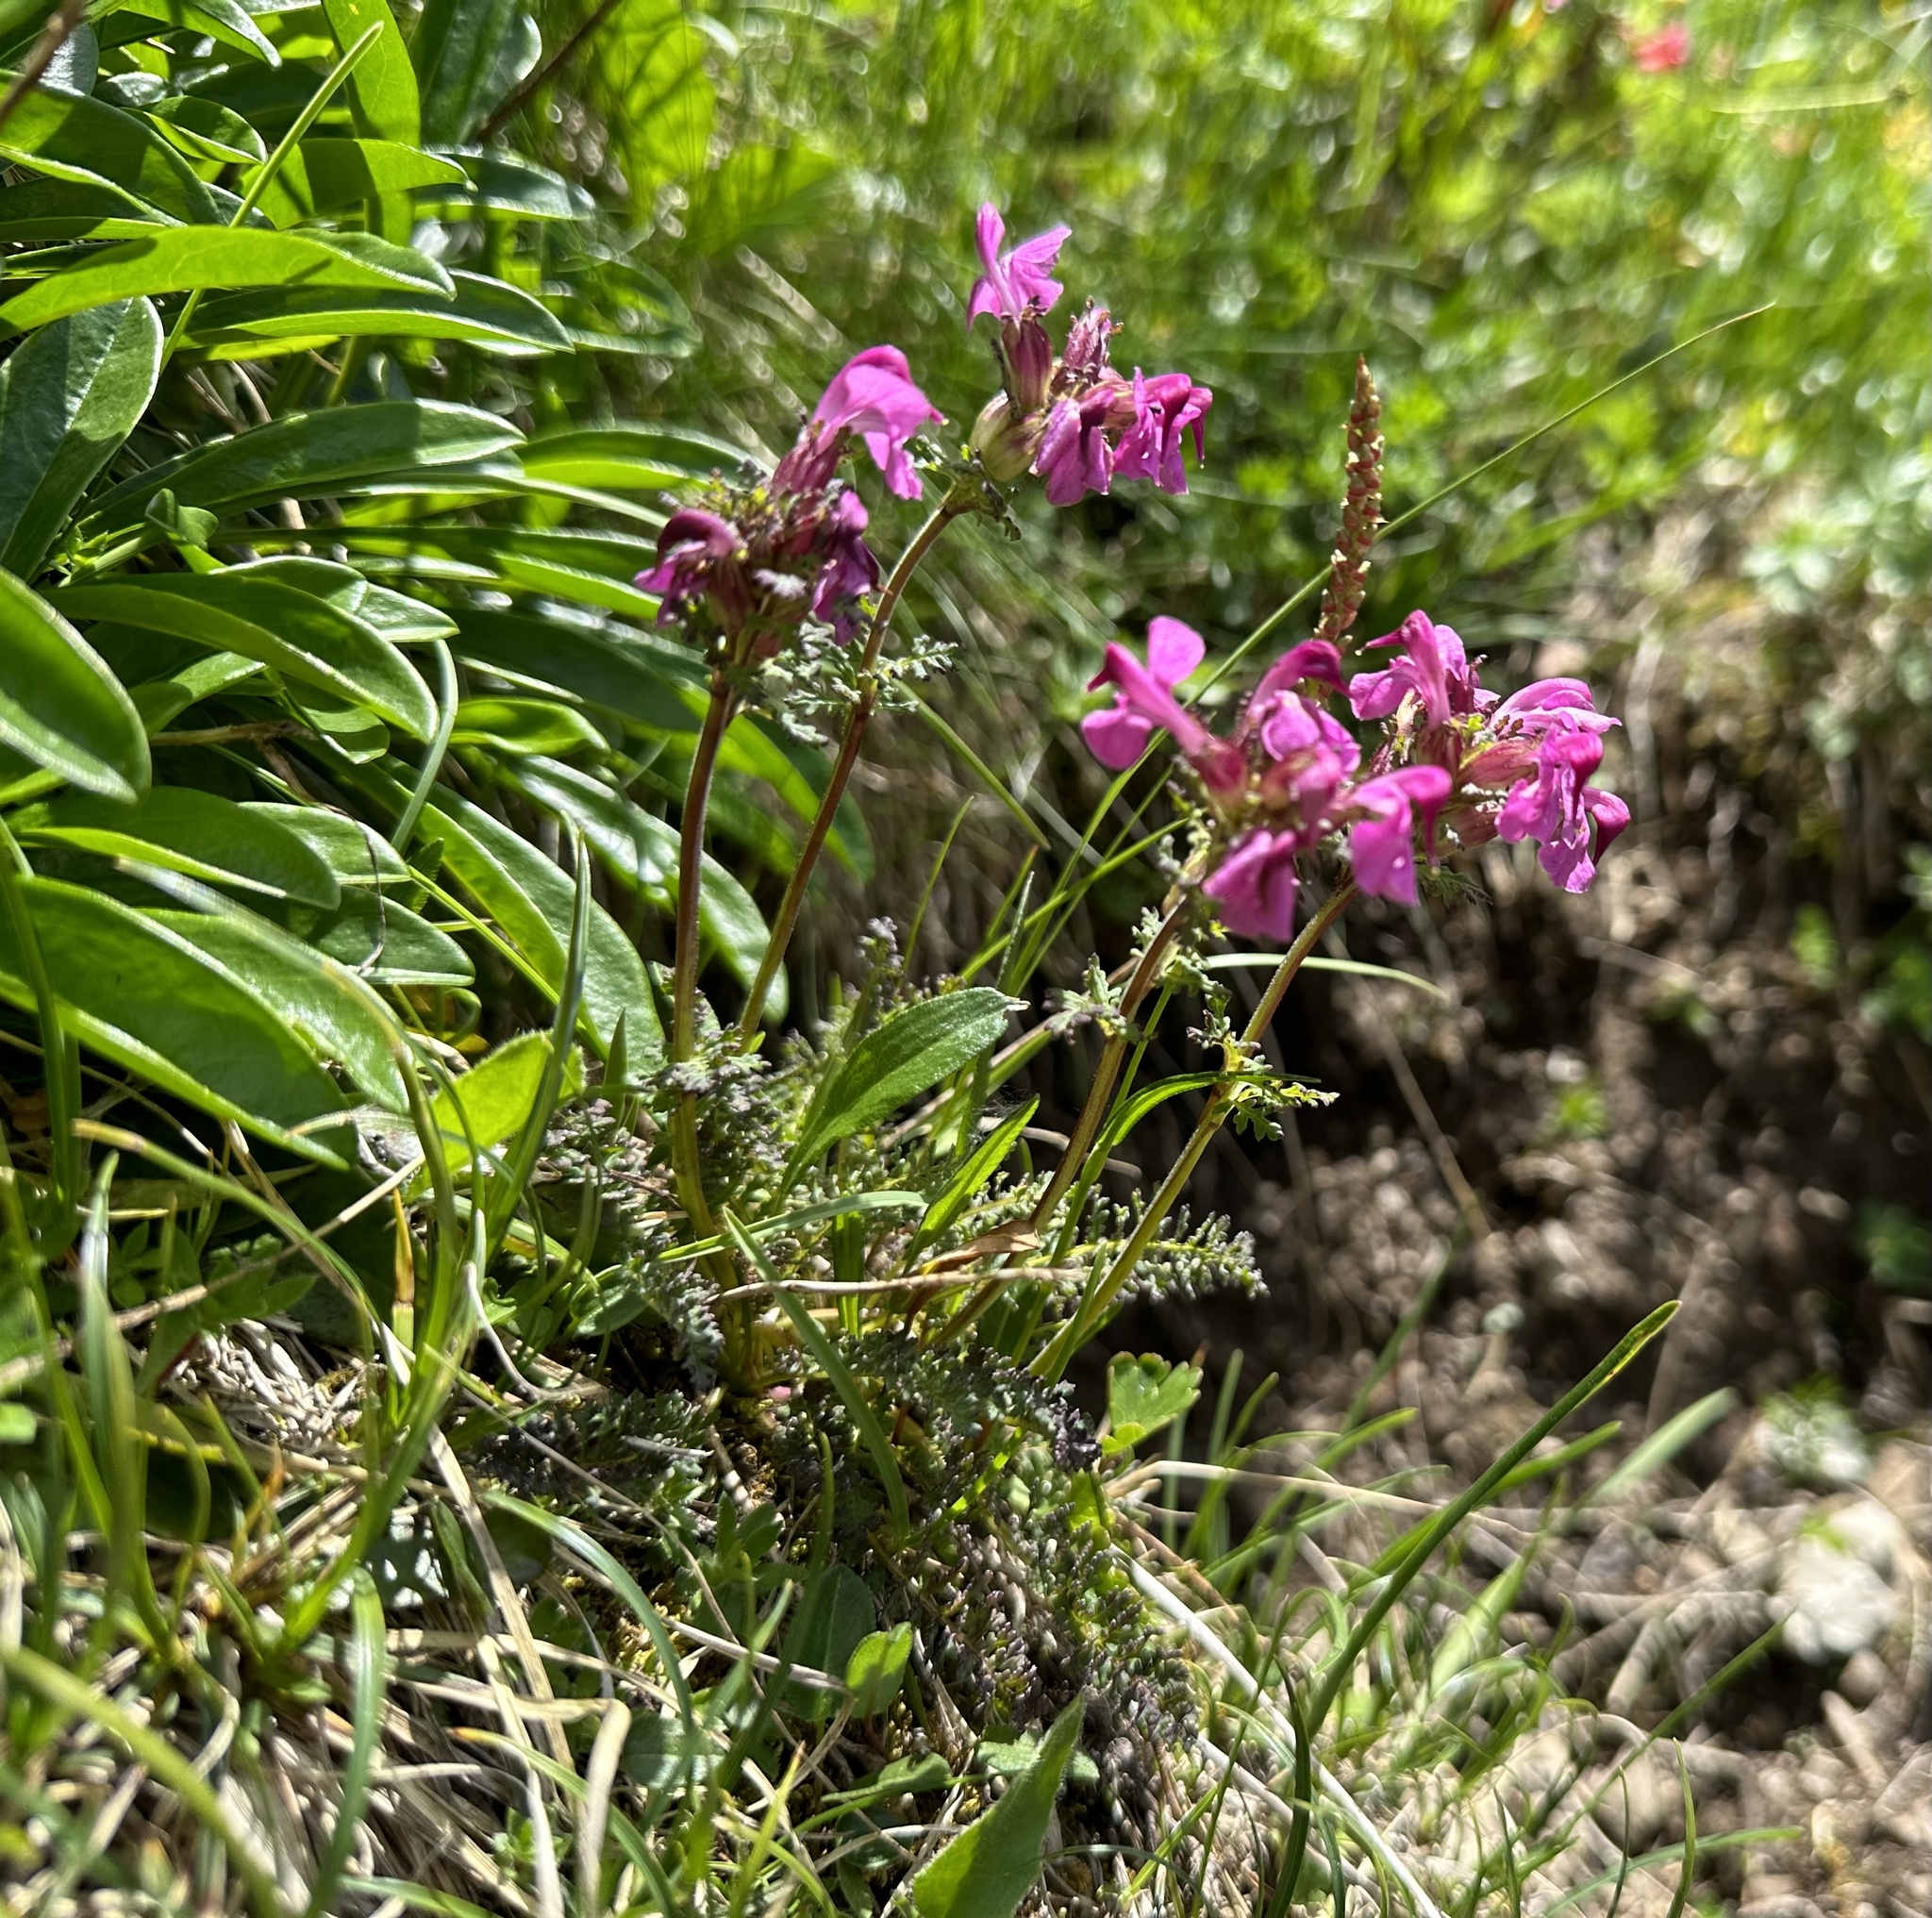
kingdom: Plantae
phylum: Tracheophyta
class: Magnoliopsida
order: Lamiales
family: Orobanchaceae
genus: Pedicularis
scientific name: Pedicularis rostratocapitata
